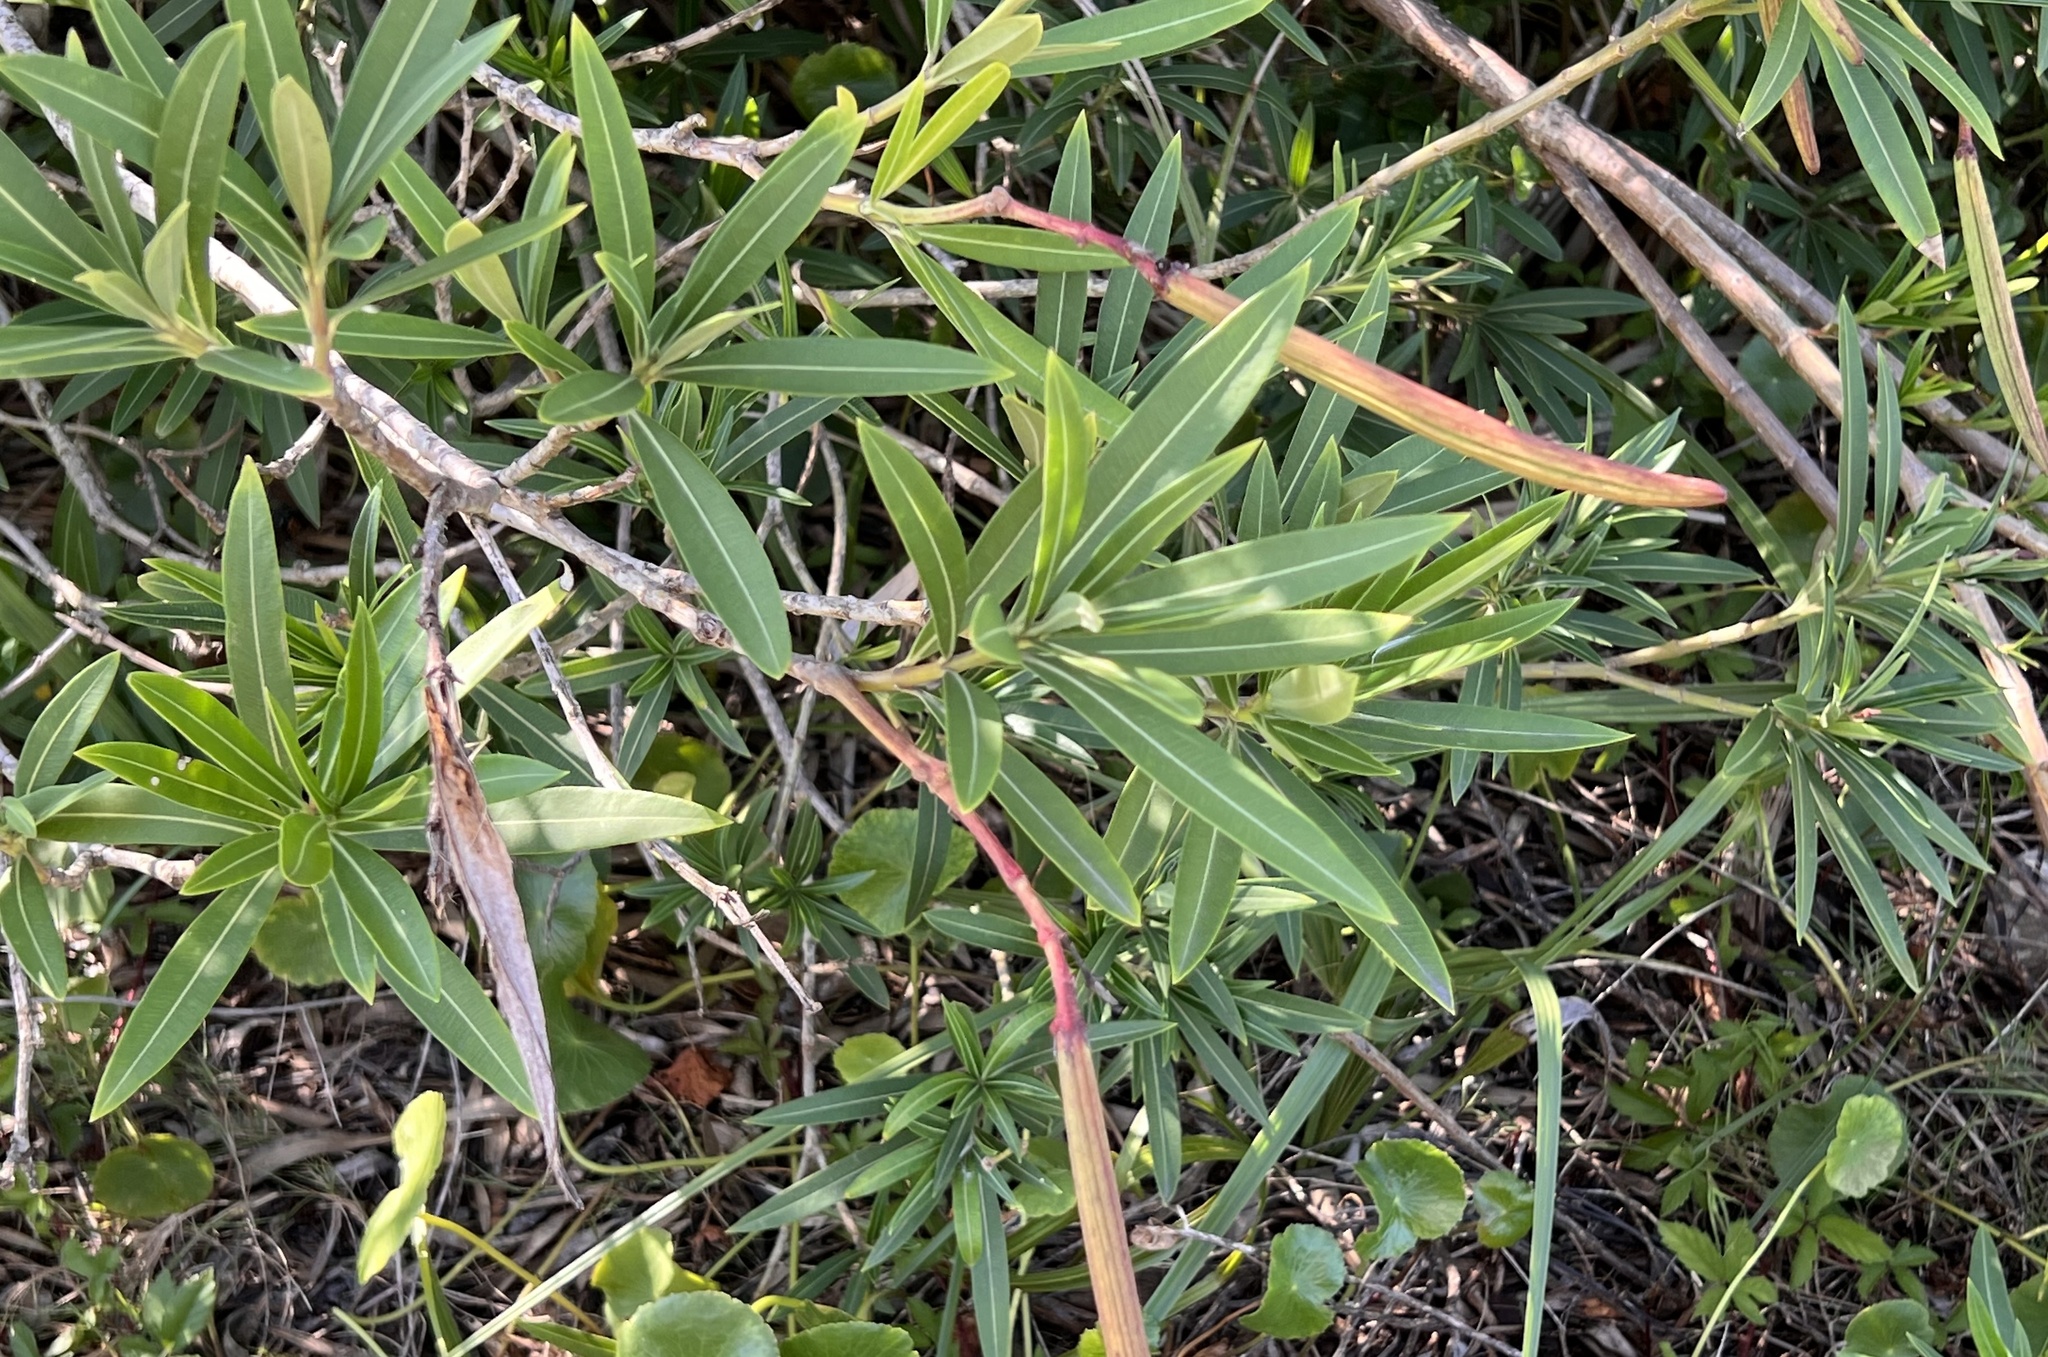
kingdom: Plantae
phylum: Tracheophyta
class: Magnoliopsida
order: Gentianales
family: Apocynaceae
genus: Nerium
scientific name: Nerium oleander
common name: Oleander
